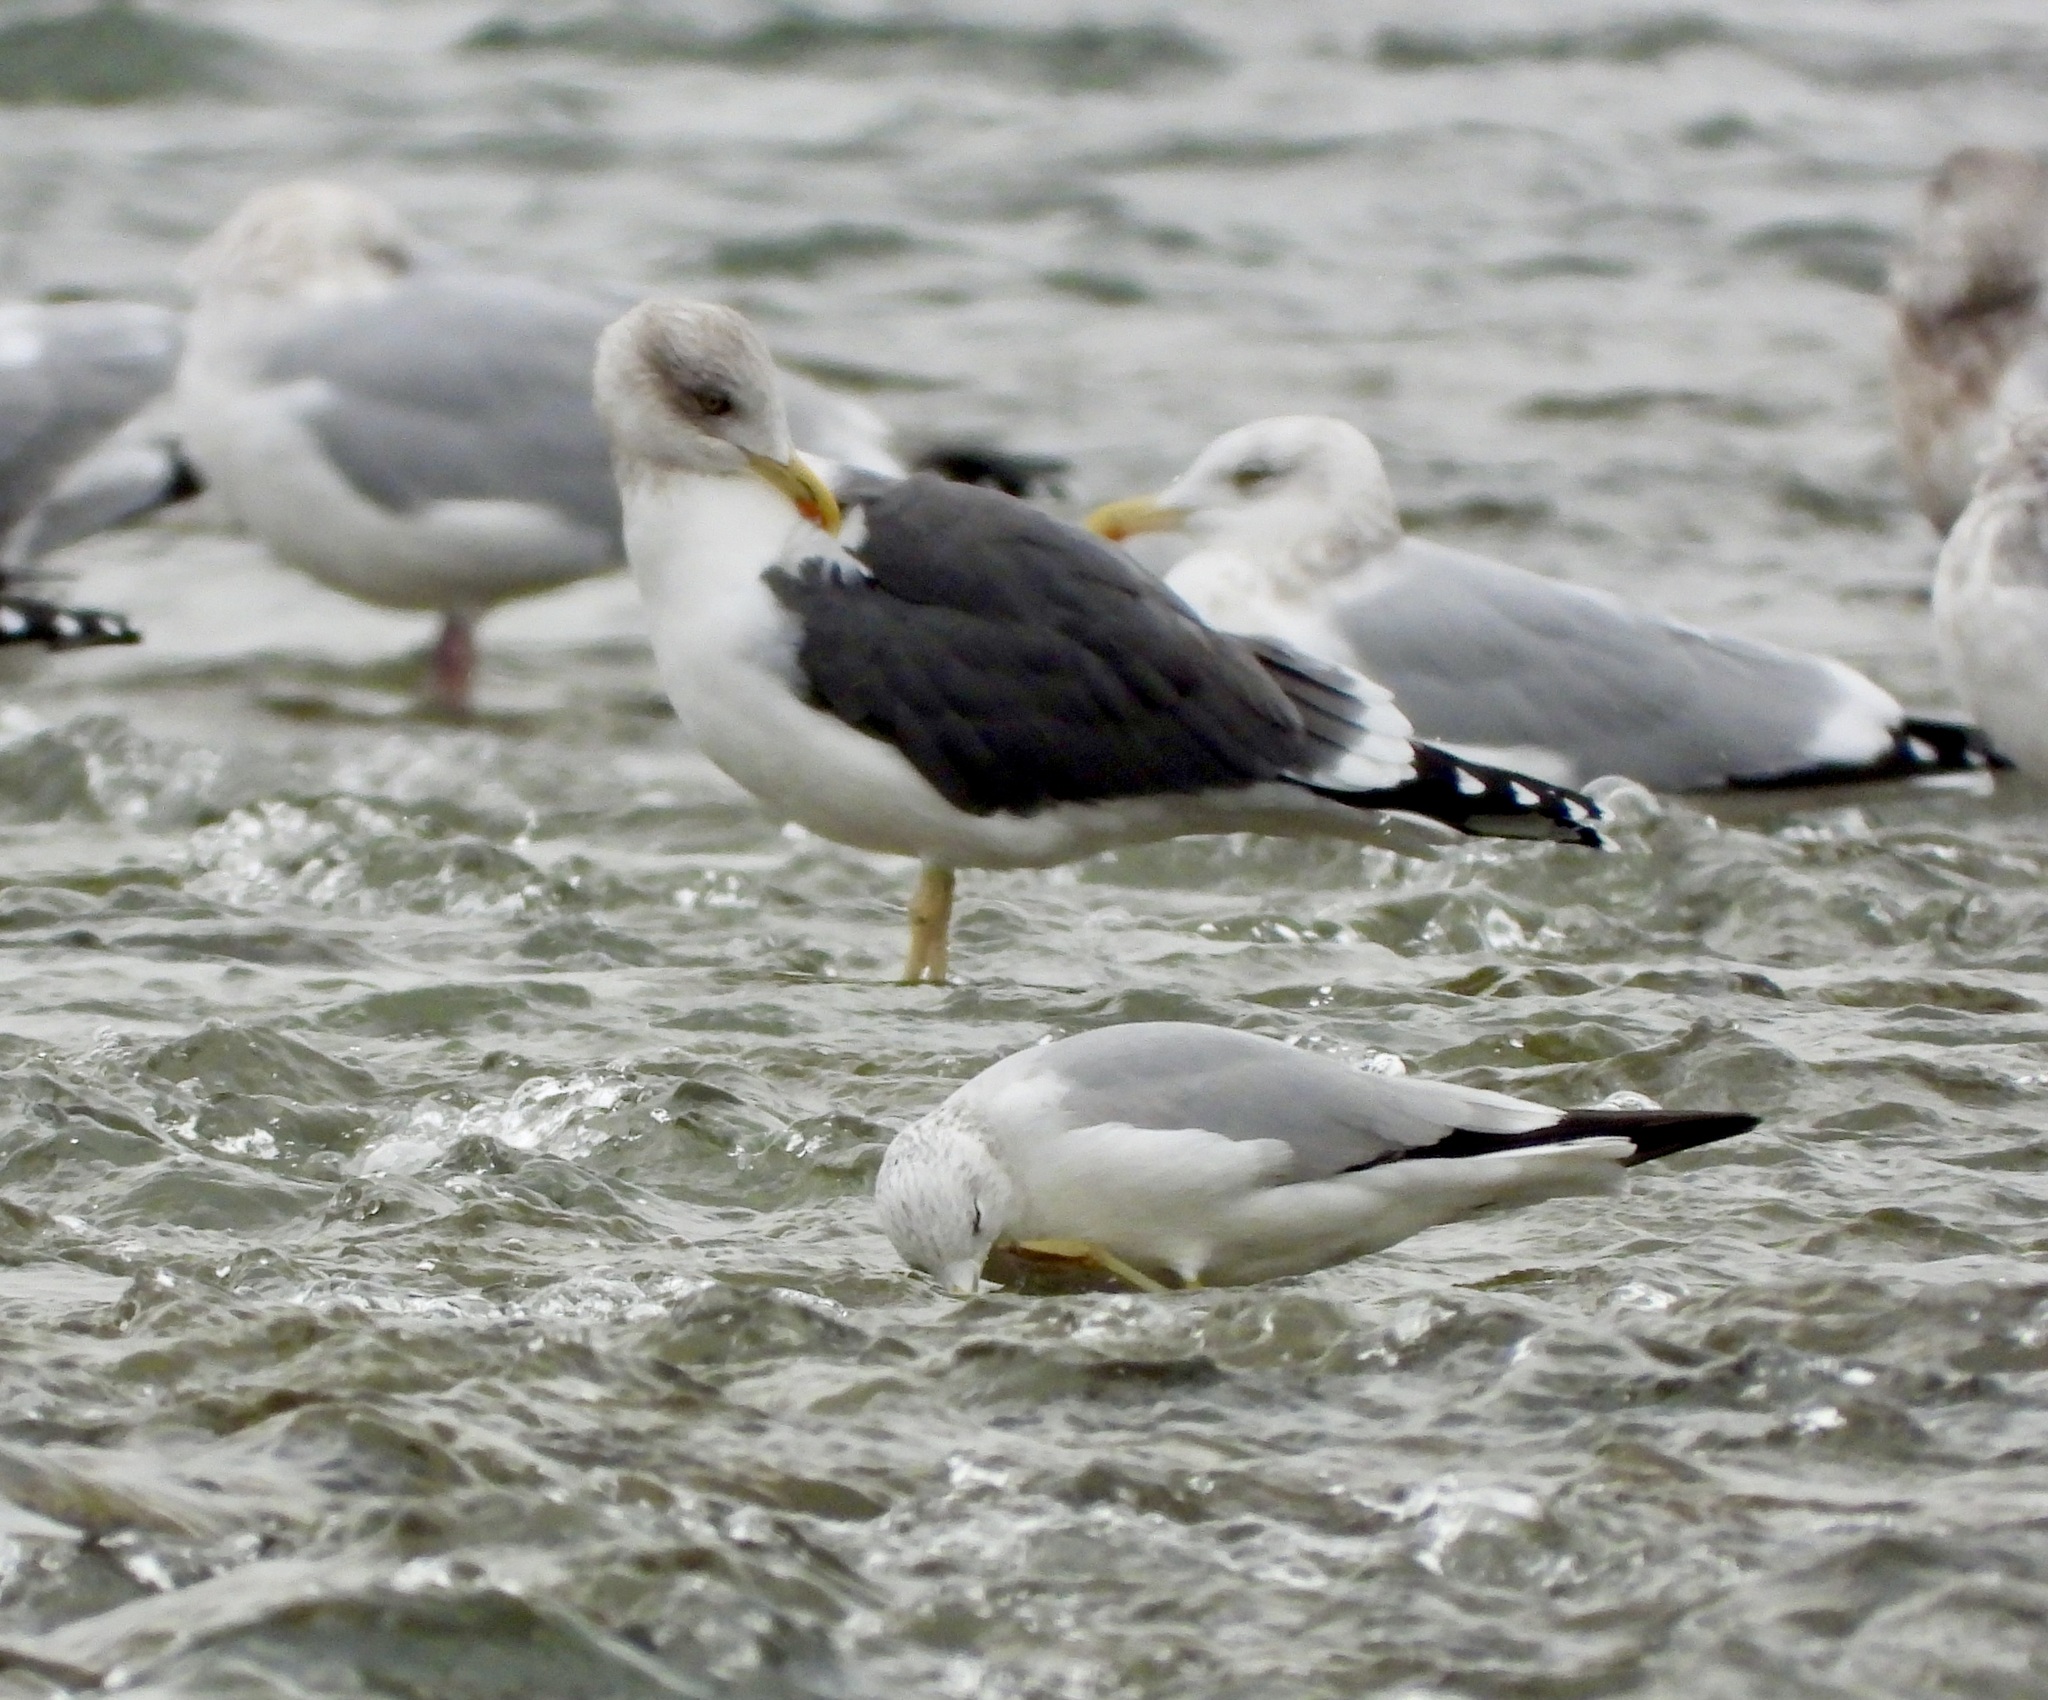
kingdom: Animalia
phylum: Chordata
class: Aves
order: Charadriiformes
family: Laridae
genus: Larus
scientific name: Larus fuscus
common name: Lesser black-backed gull
